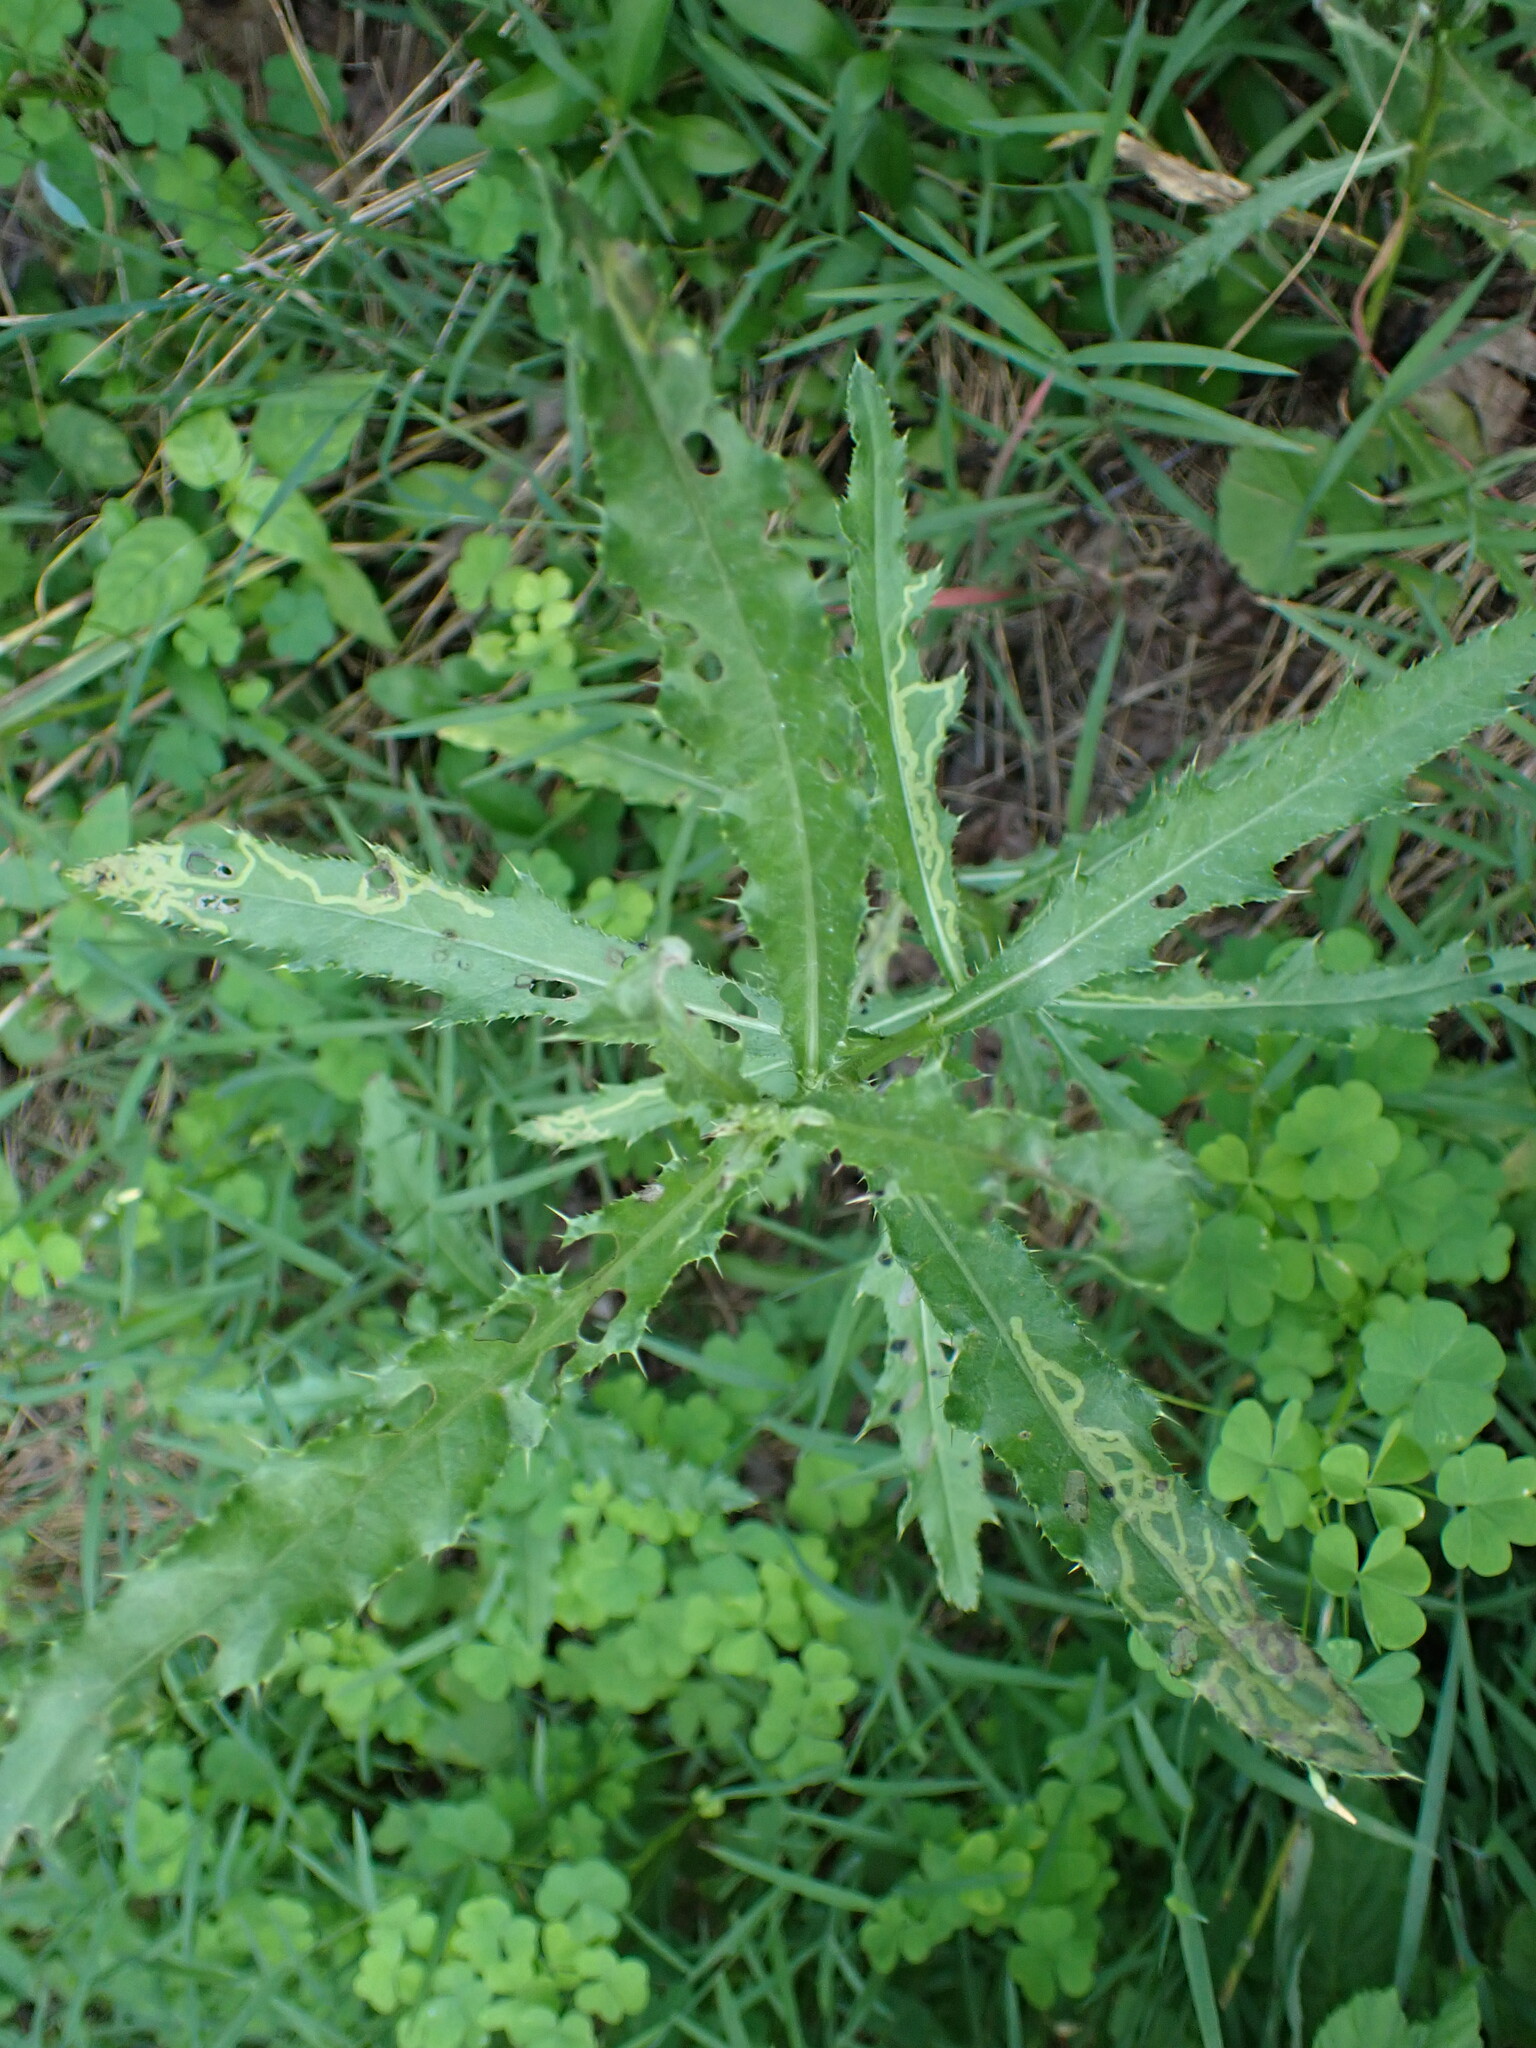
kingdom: Plantae
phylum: Tracheophyta
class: Magnoliopsida
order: Asterales
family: Asteraceae
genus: Cirsium
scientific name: Cirsium arvense
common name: Creeping thistle
